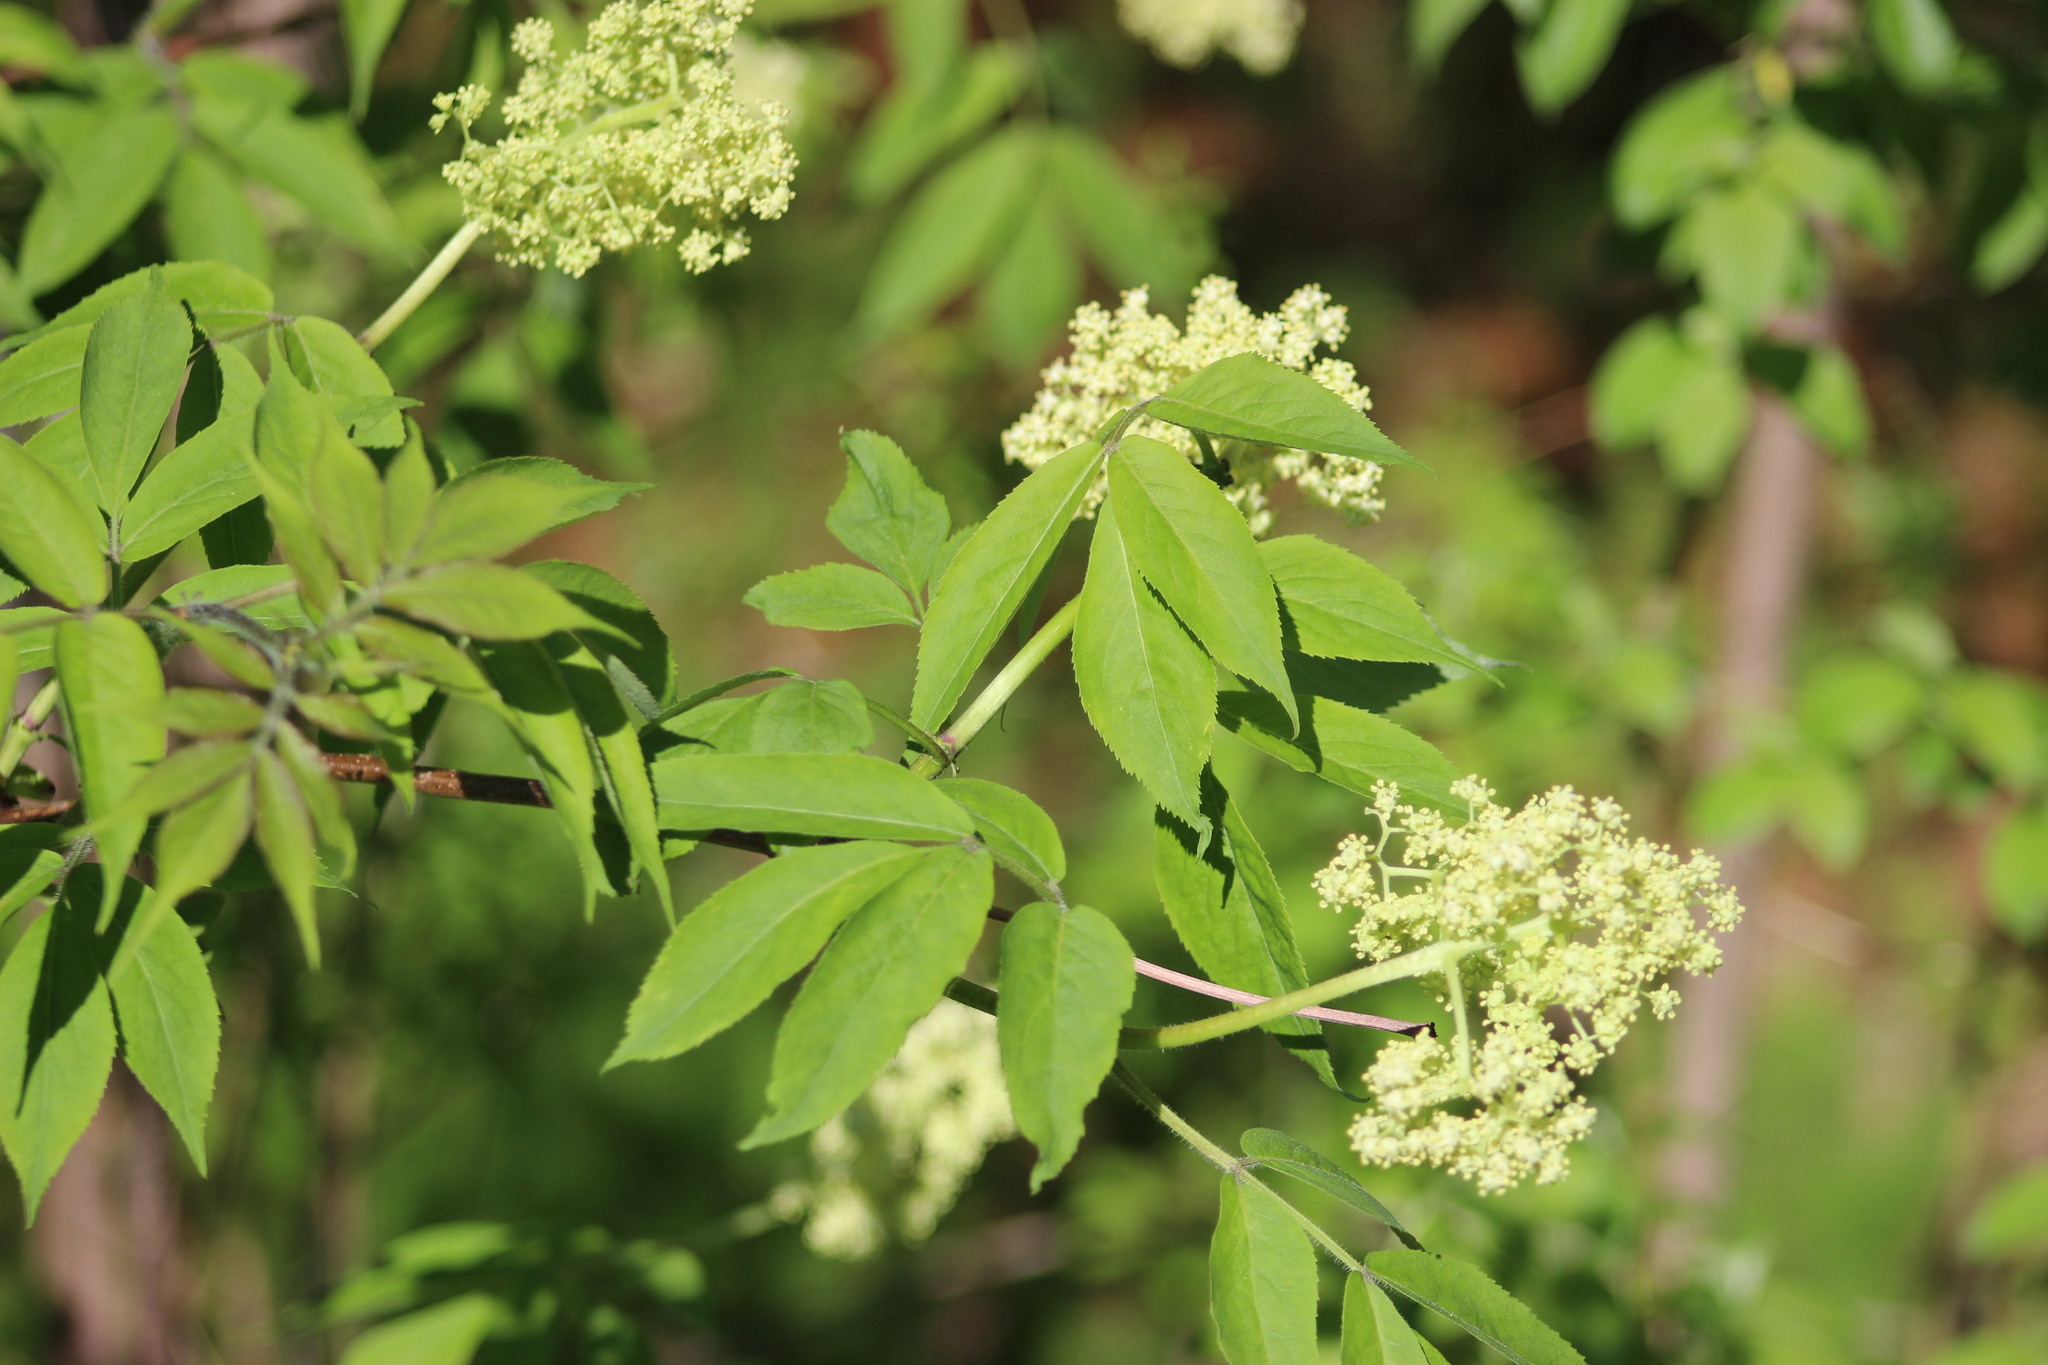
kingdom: Plantae
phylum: Tracheophyta
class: Magnoliopsida
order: Dipsacales
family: Viburnaceae
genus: Sambucus
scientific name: Sambucus sibirica
